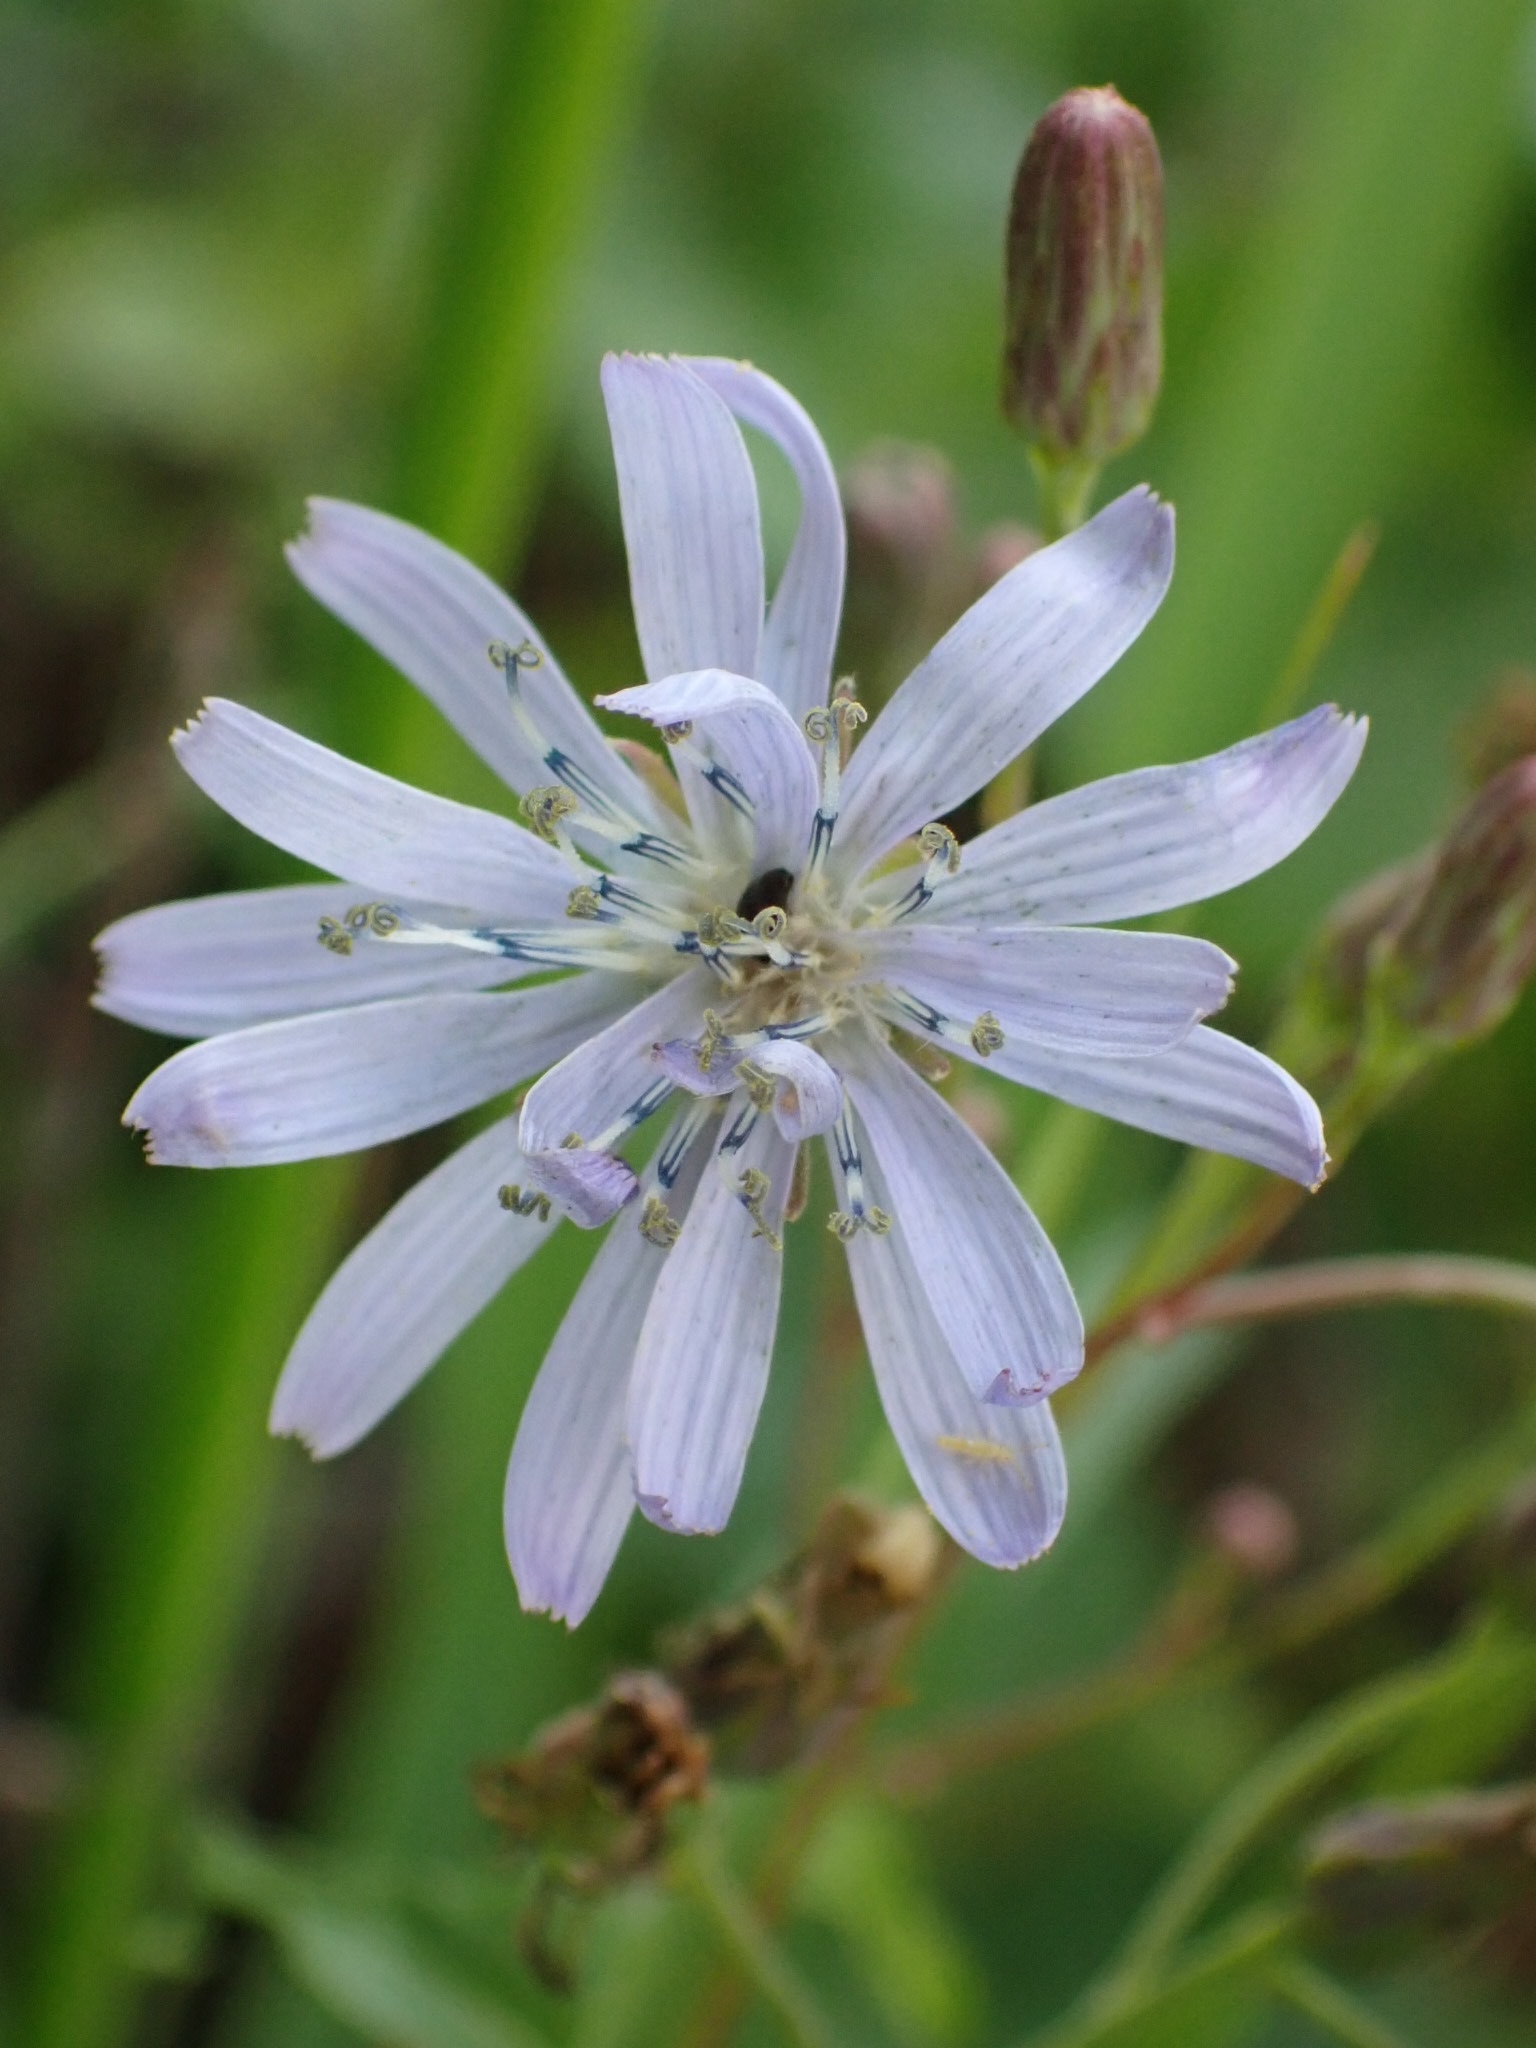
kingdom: Plantae
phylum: Tracheophyta
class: Magnoliopsida
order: Asterales
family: Asteraceae
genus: Lactuca
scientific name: Lactuca sibirica
